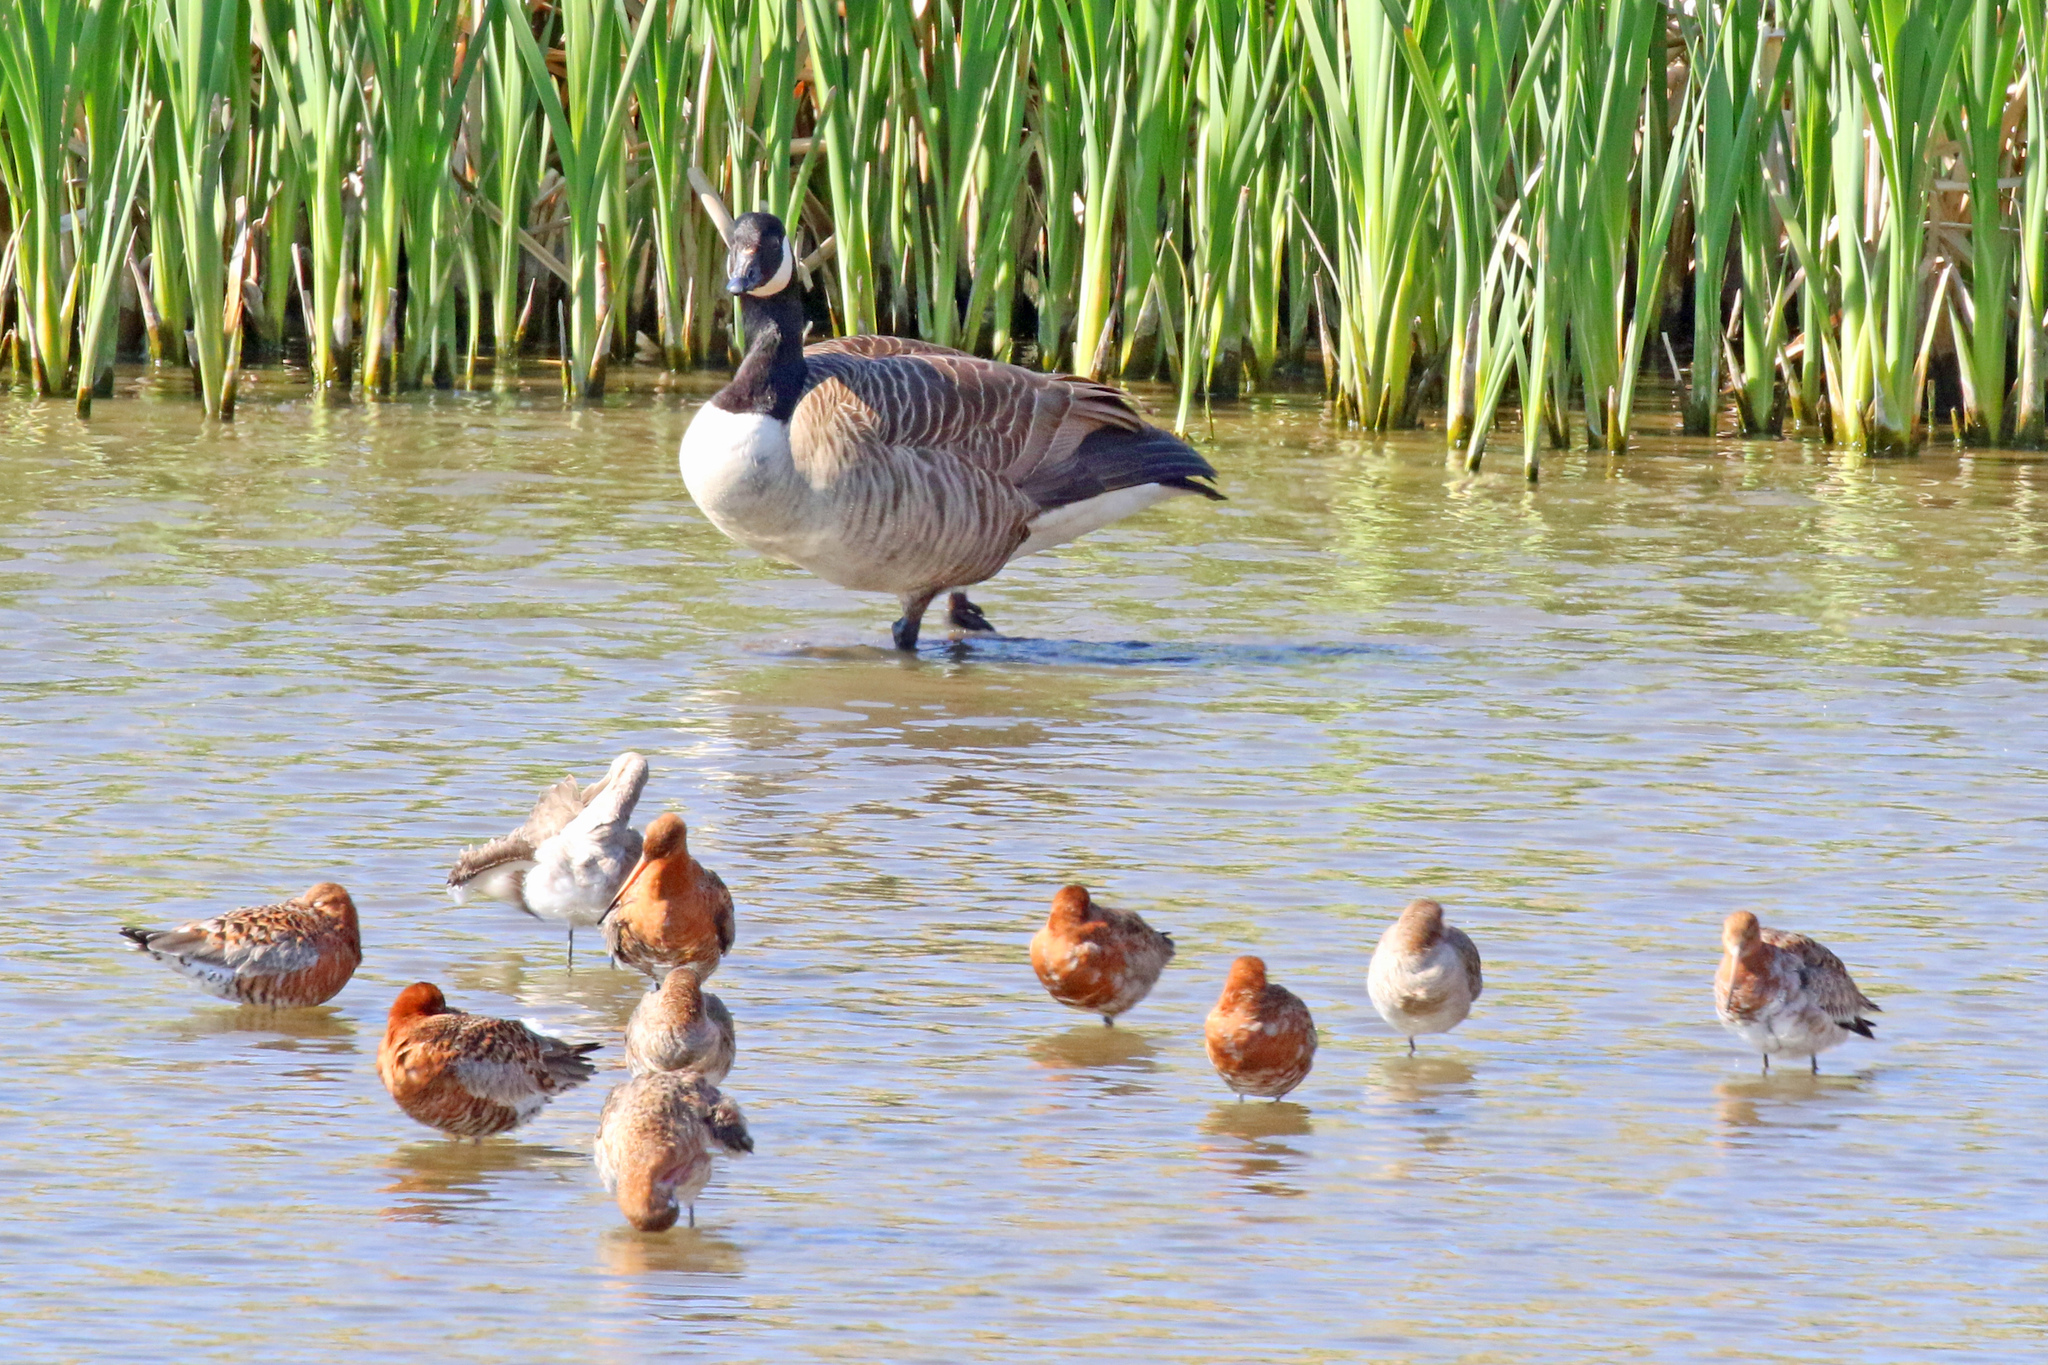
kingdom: Animalia
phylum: Chordata
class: Aves
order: Anseriformes
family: Anatidae
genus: Branta
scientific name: Branta canadensis
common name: Canada goose
